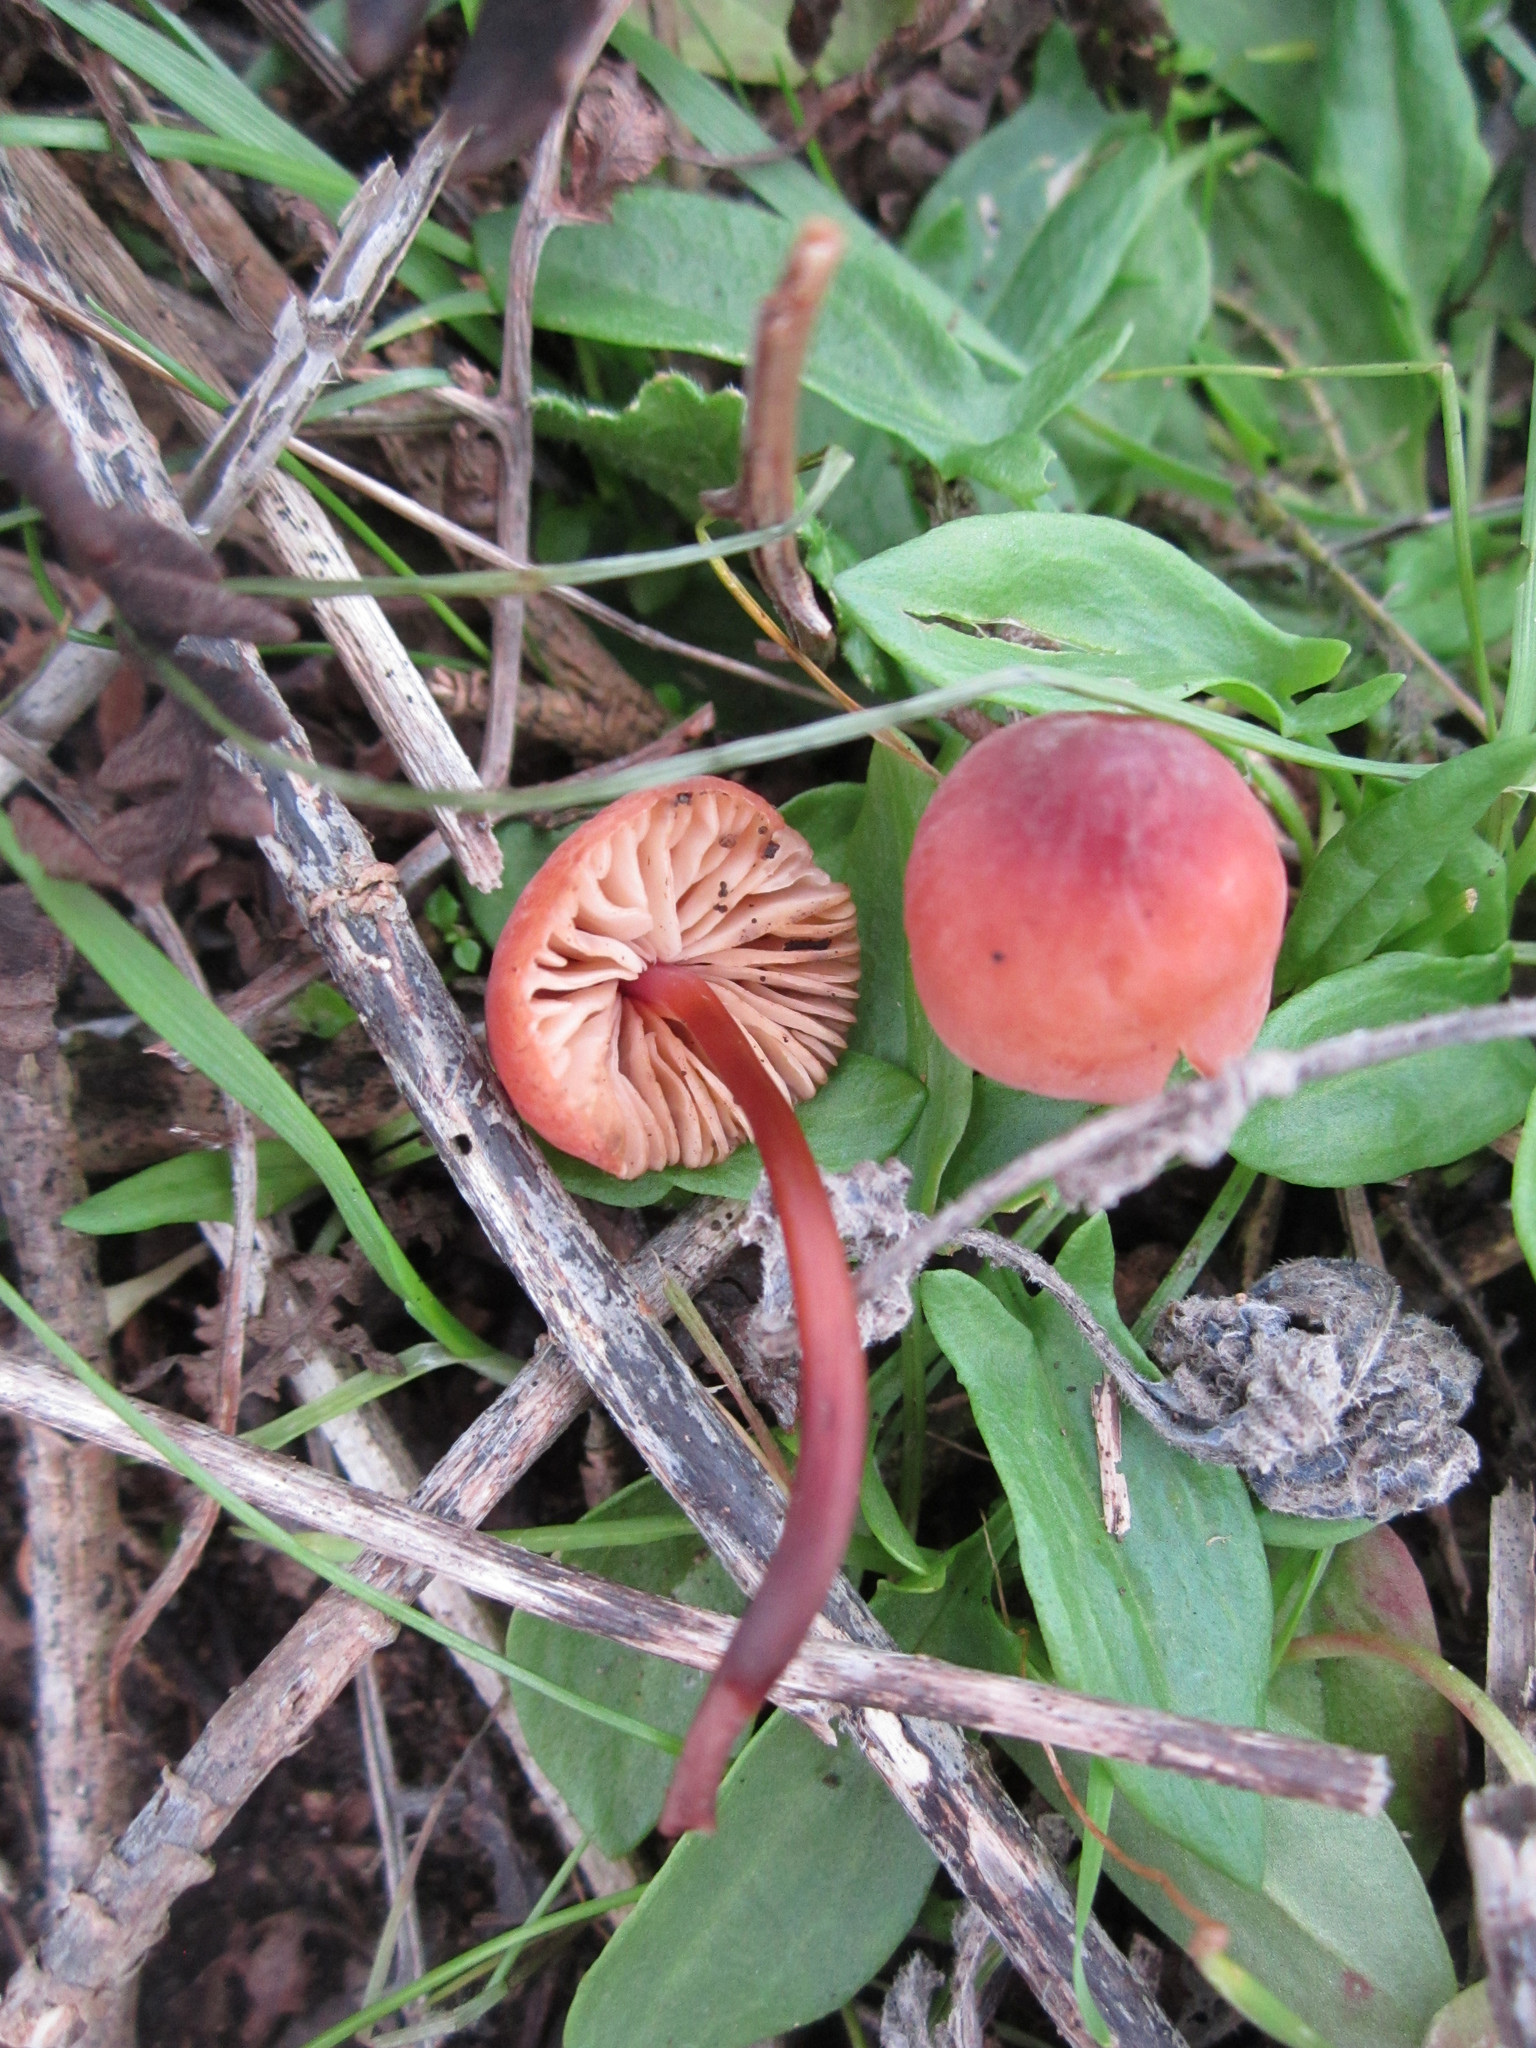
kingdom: Fungi
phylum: Basidiomycota
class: Agaricomycetes
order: Agaricales
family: Marasmiaceae
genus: Marasmius
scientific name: Marasmius plicatulus
